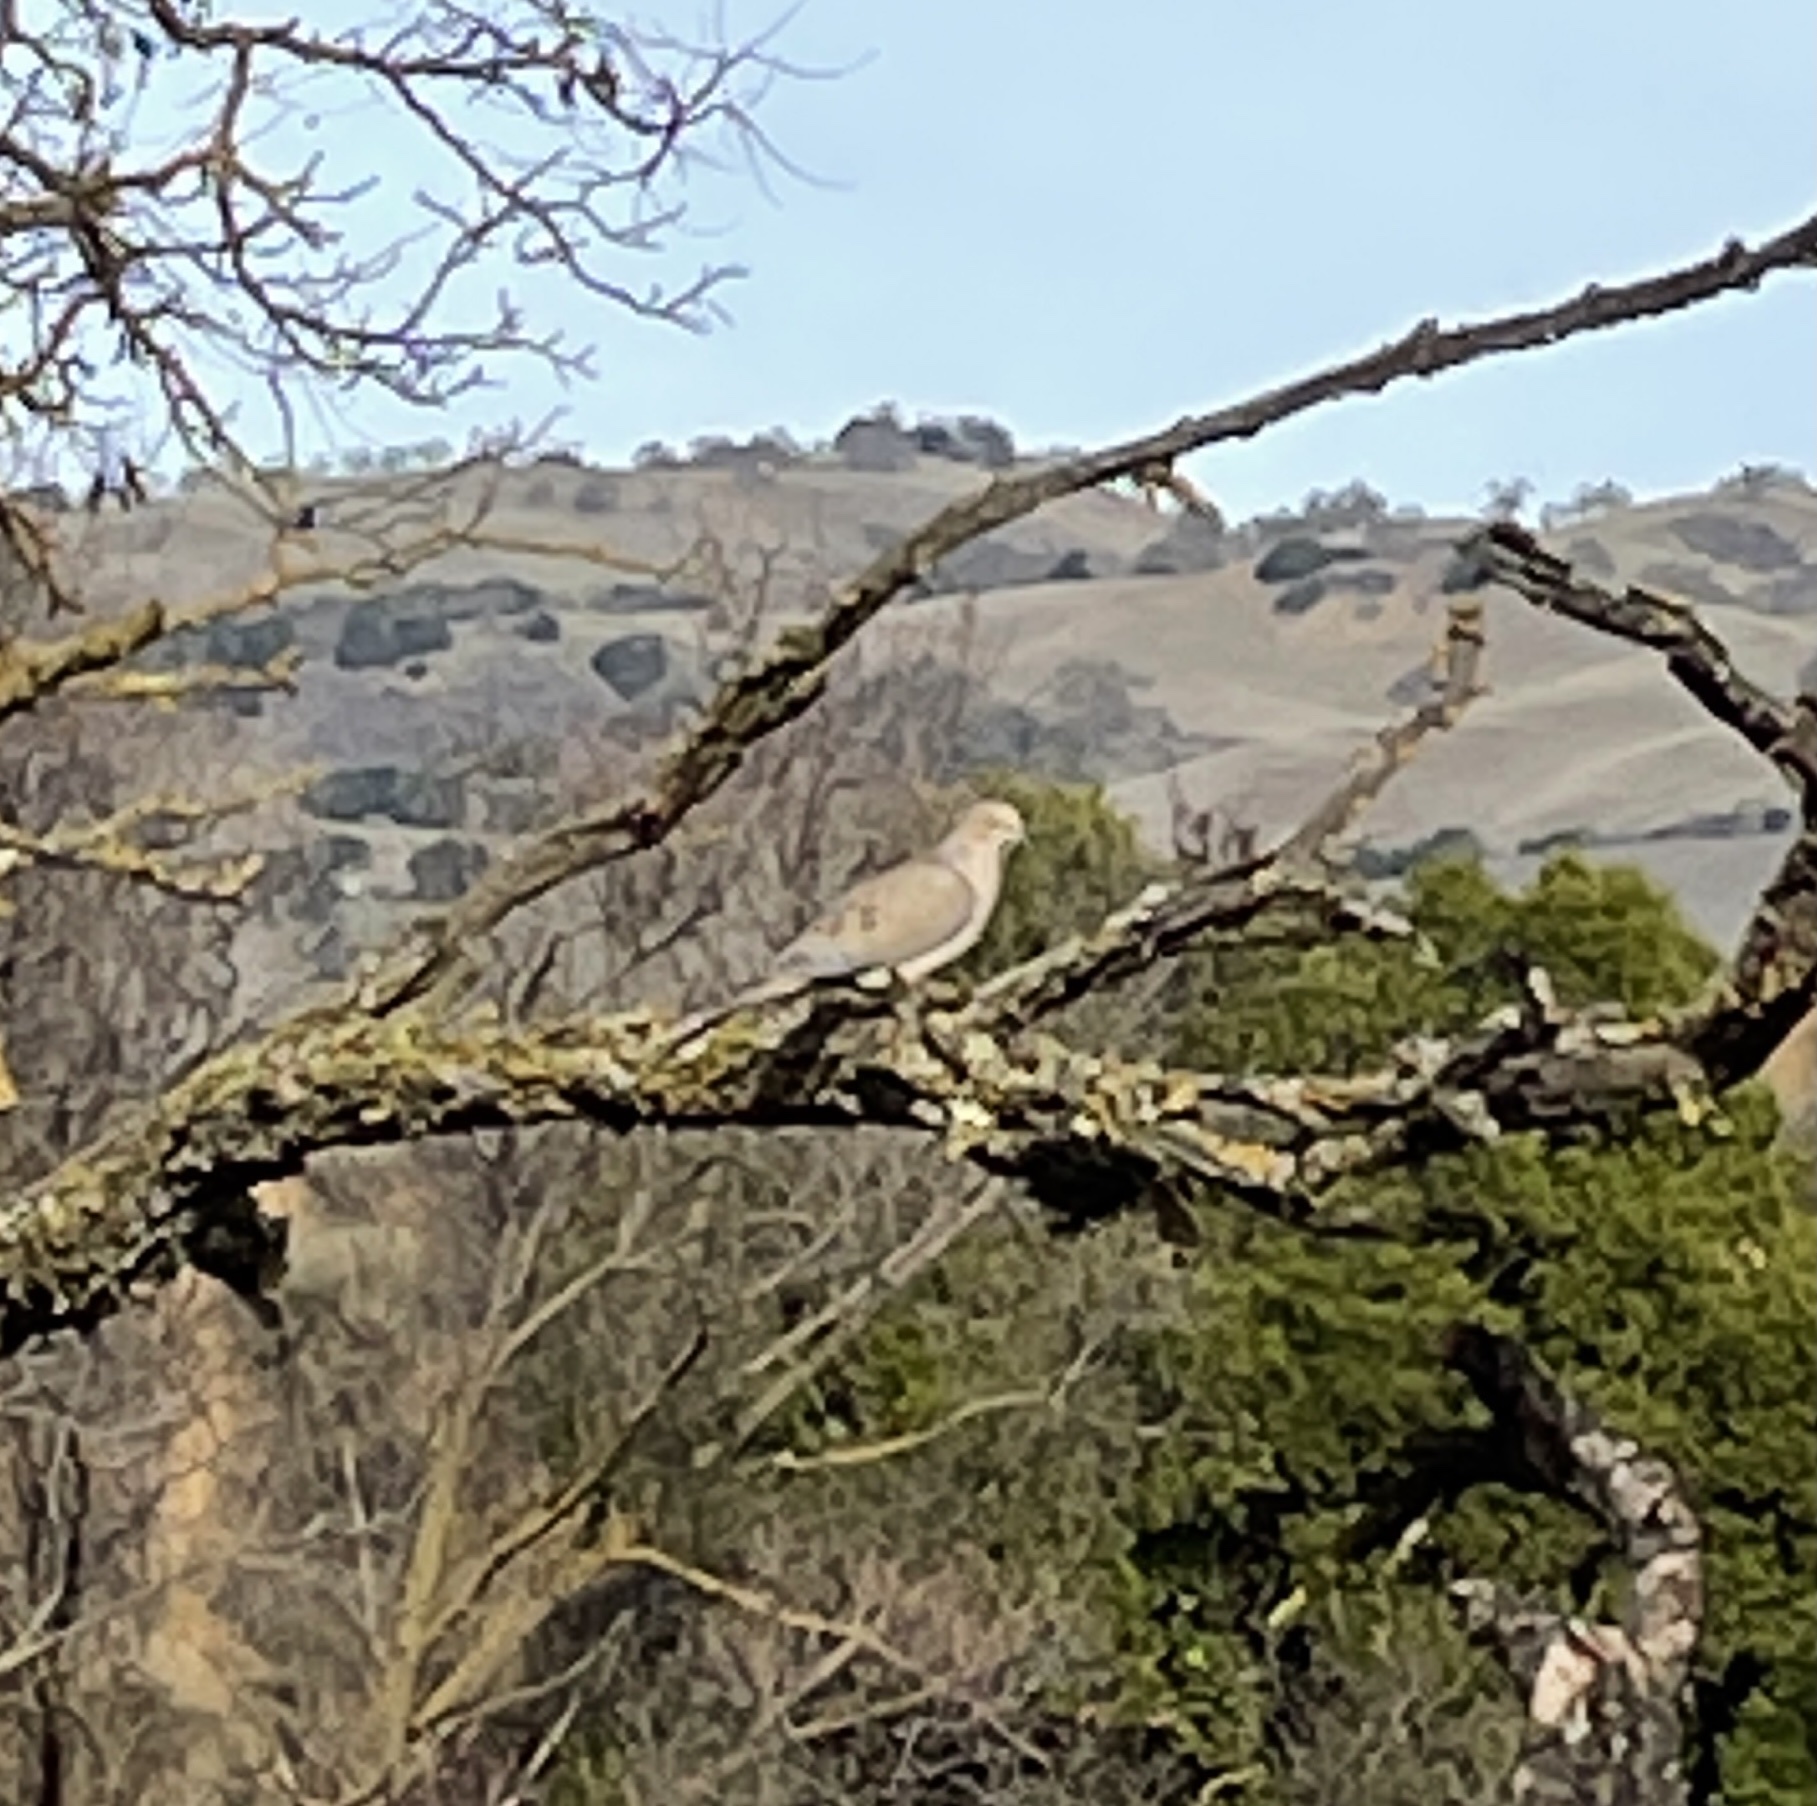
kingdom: Animalia
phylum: Chordata
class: Aves
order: Columbiformes
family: Columbidae
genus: Zenaida
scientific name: Zenaida macroura
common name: Mourning dove
